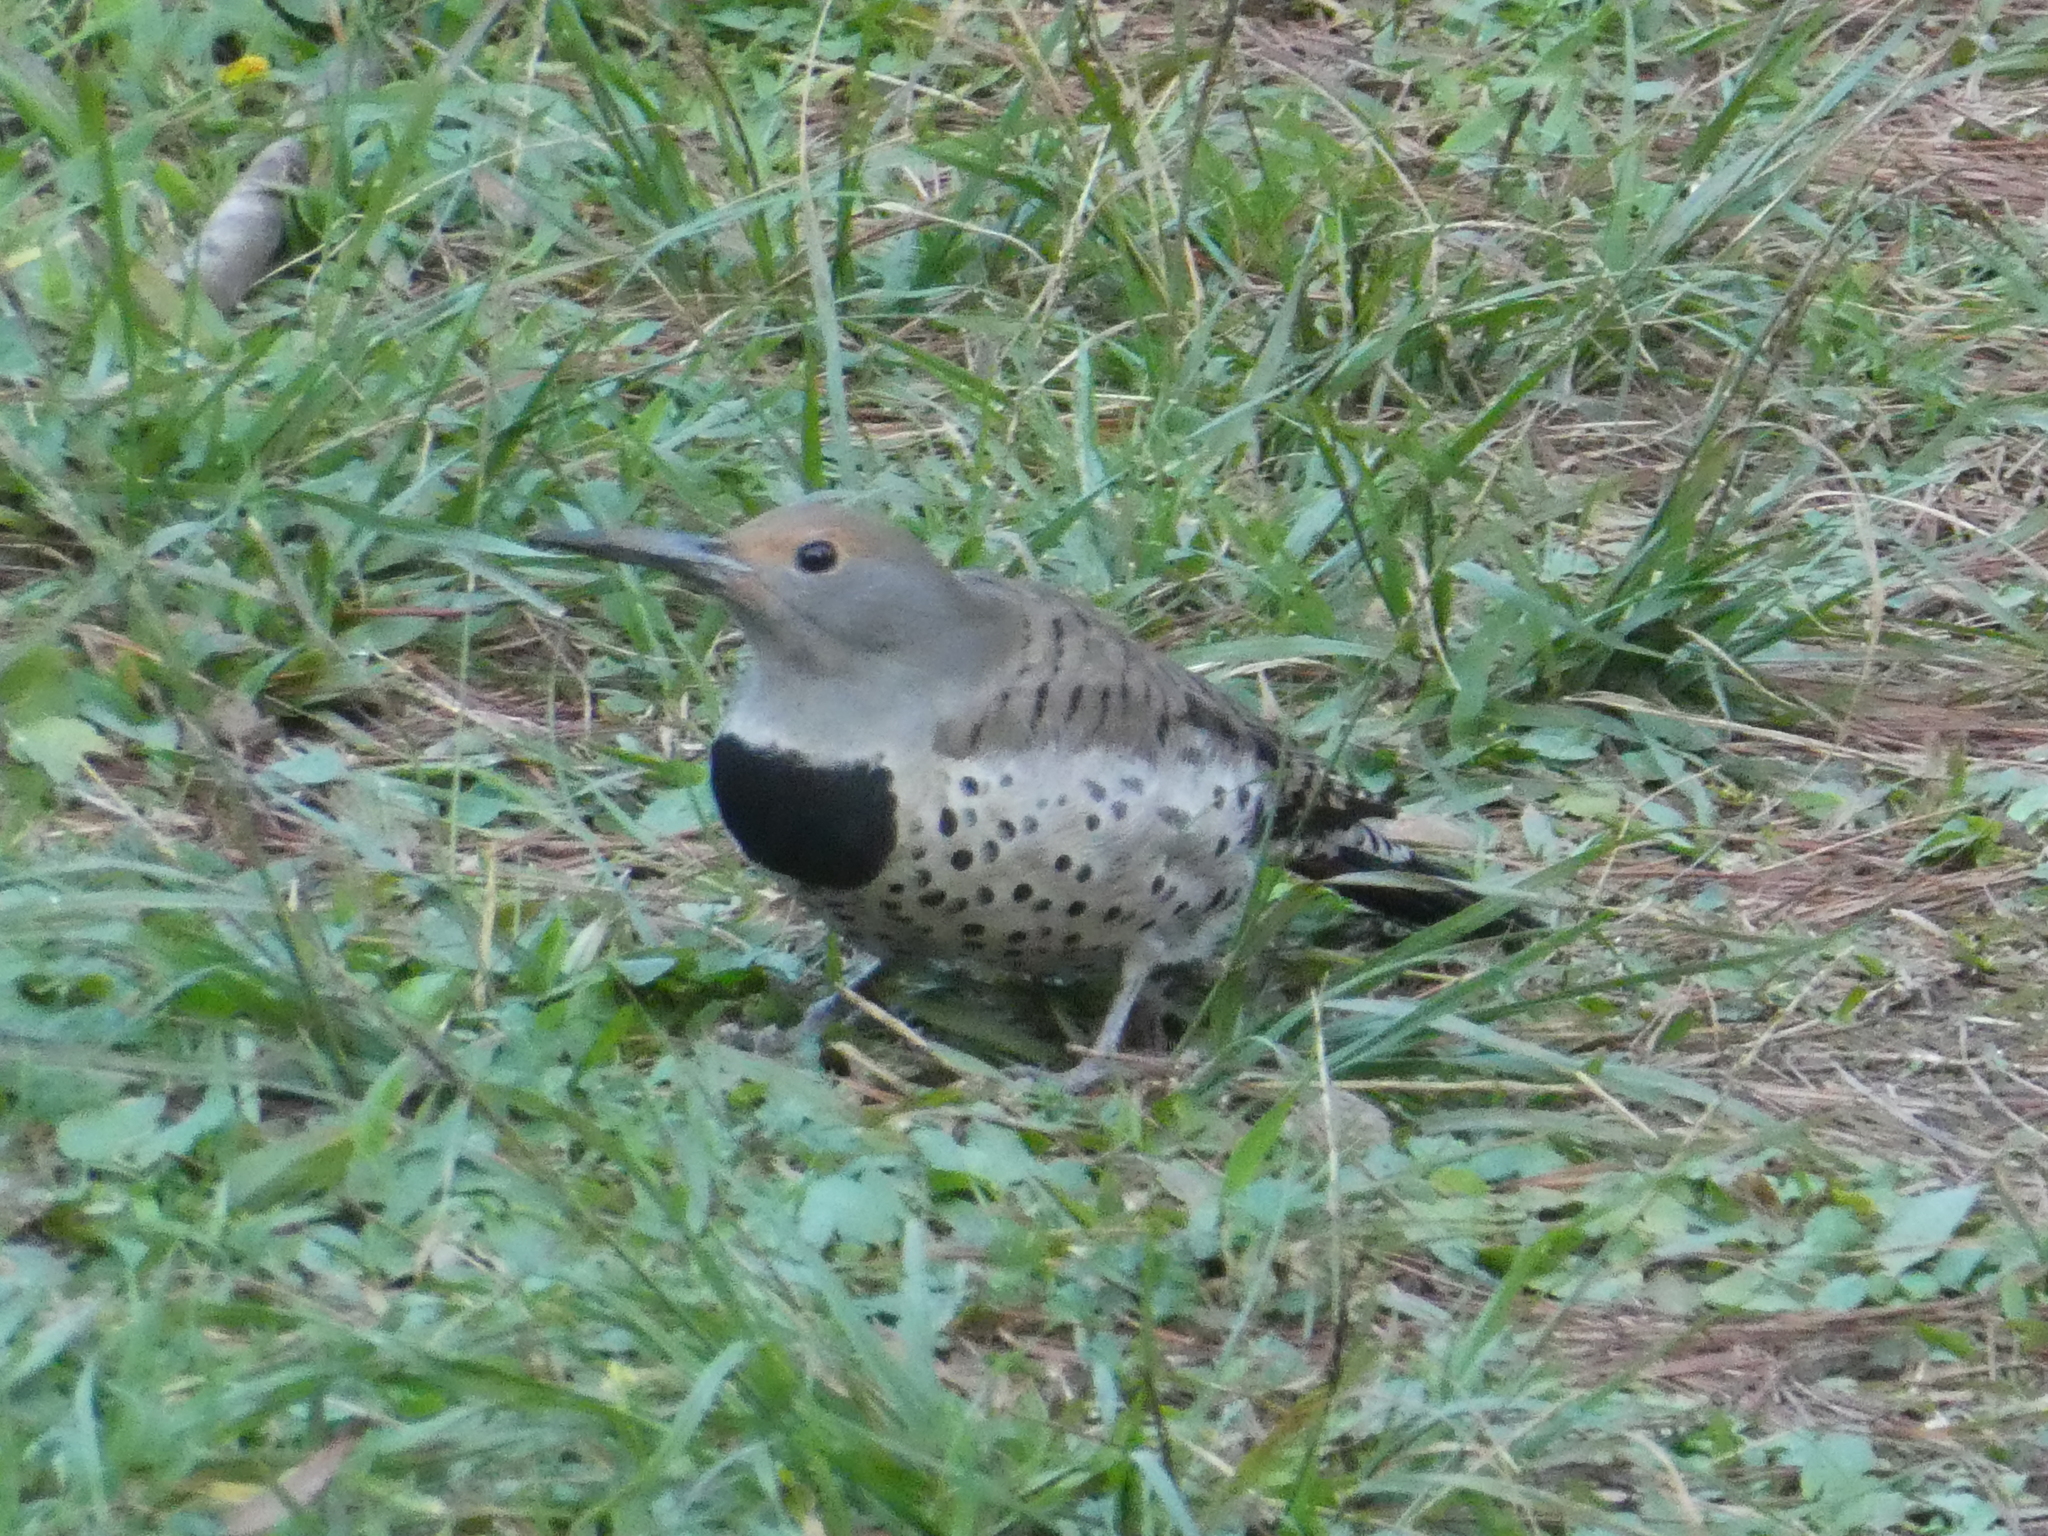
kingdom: Animalia
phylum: Chordata
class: Aves
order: Piciformes
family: Picidae
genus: Colaptes
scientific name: Colaptes auratus
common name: Northern flicker
